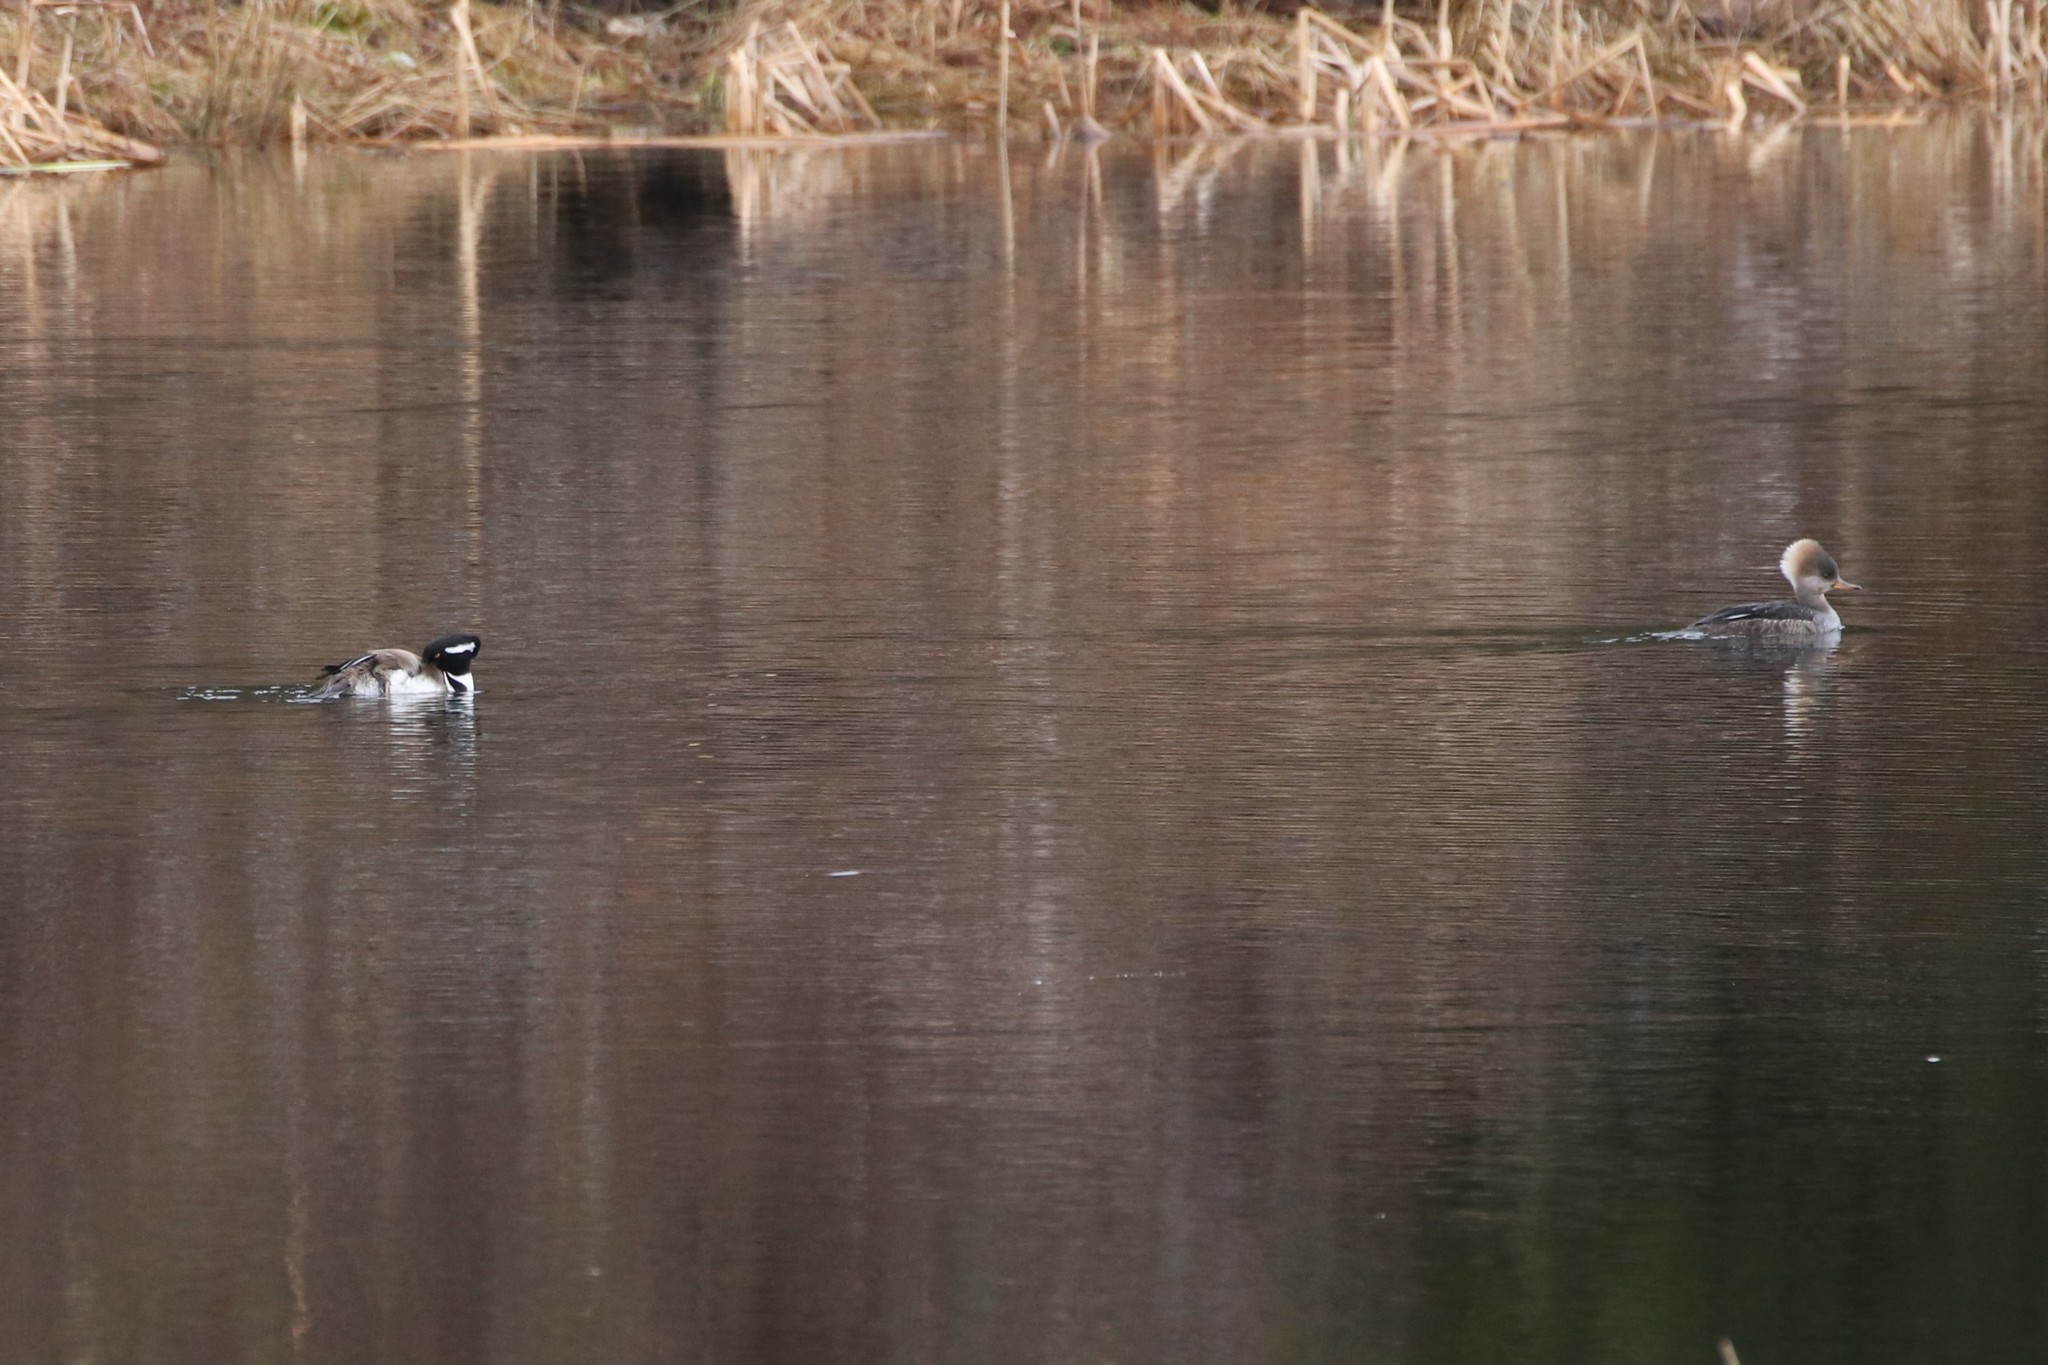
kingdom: Animalia
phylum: Chordata
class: Aves
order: Anseriformes
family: Anatidae
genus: Lophodytes
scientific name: Lophodytes cucullatus
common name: Hooded merganser
